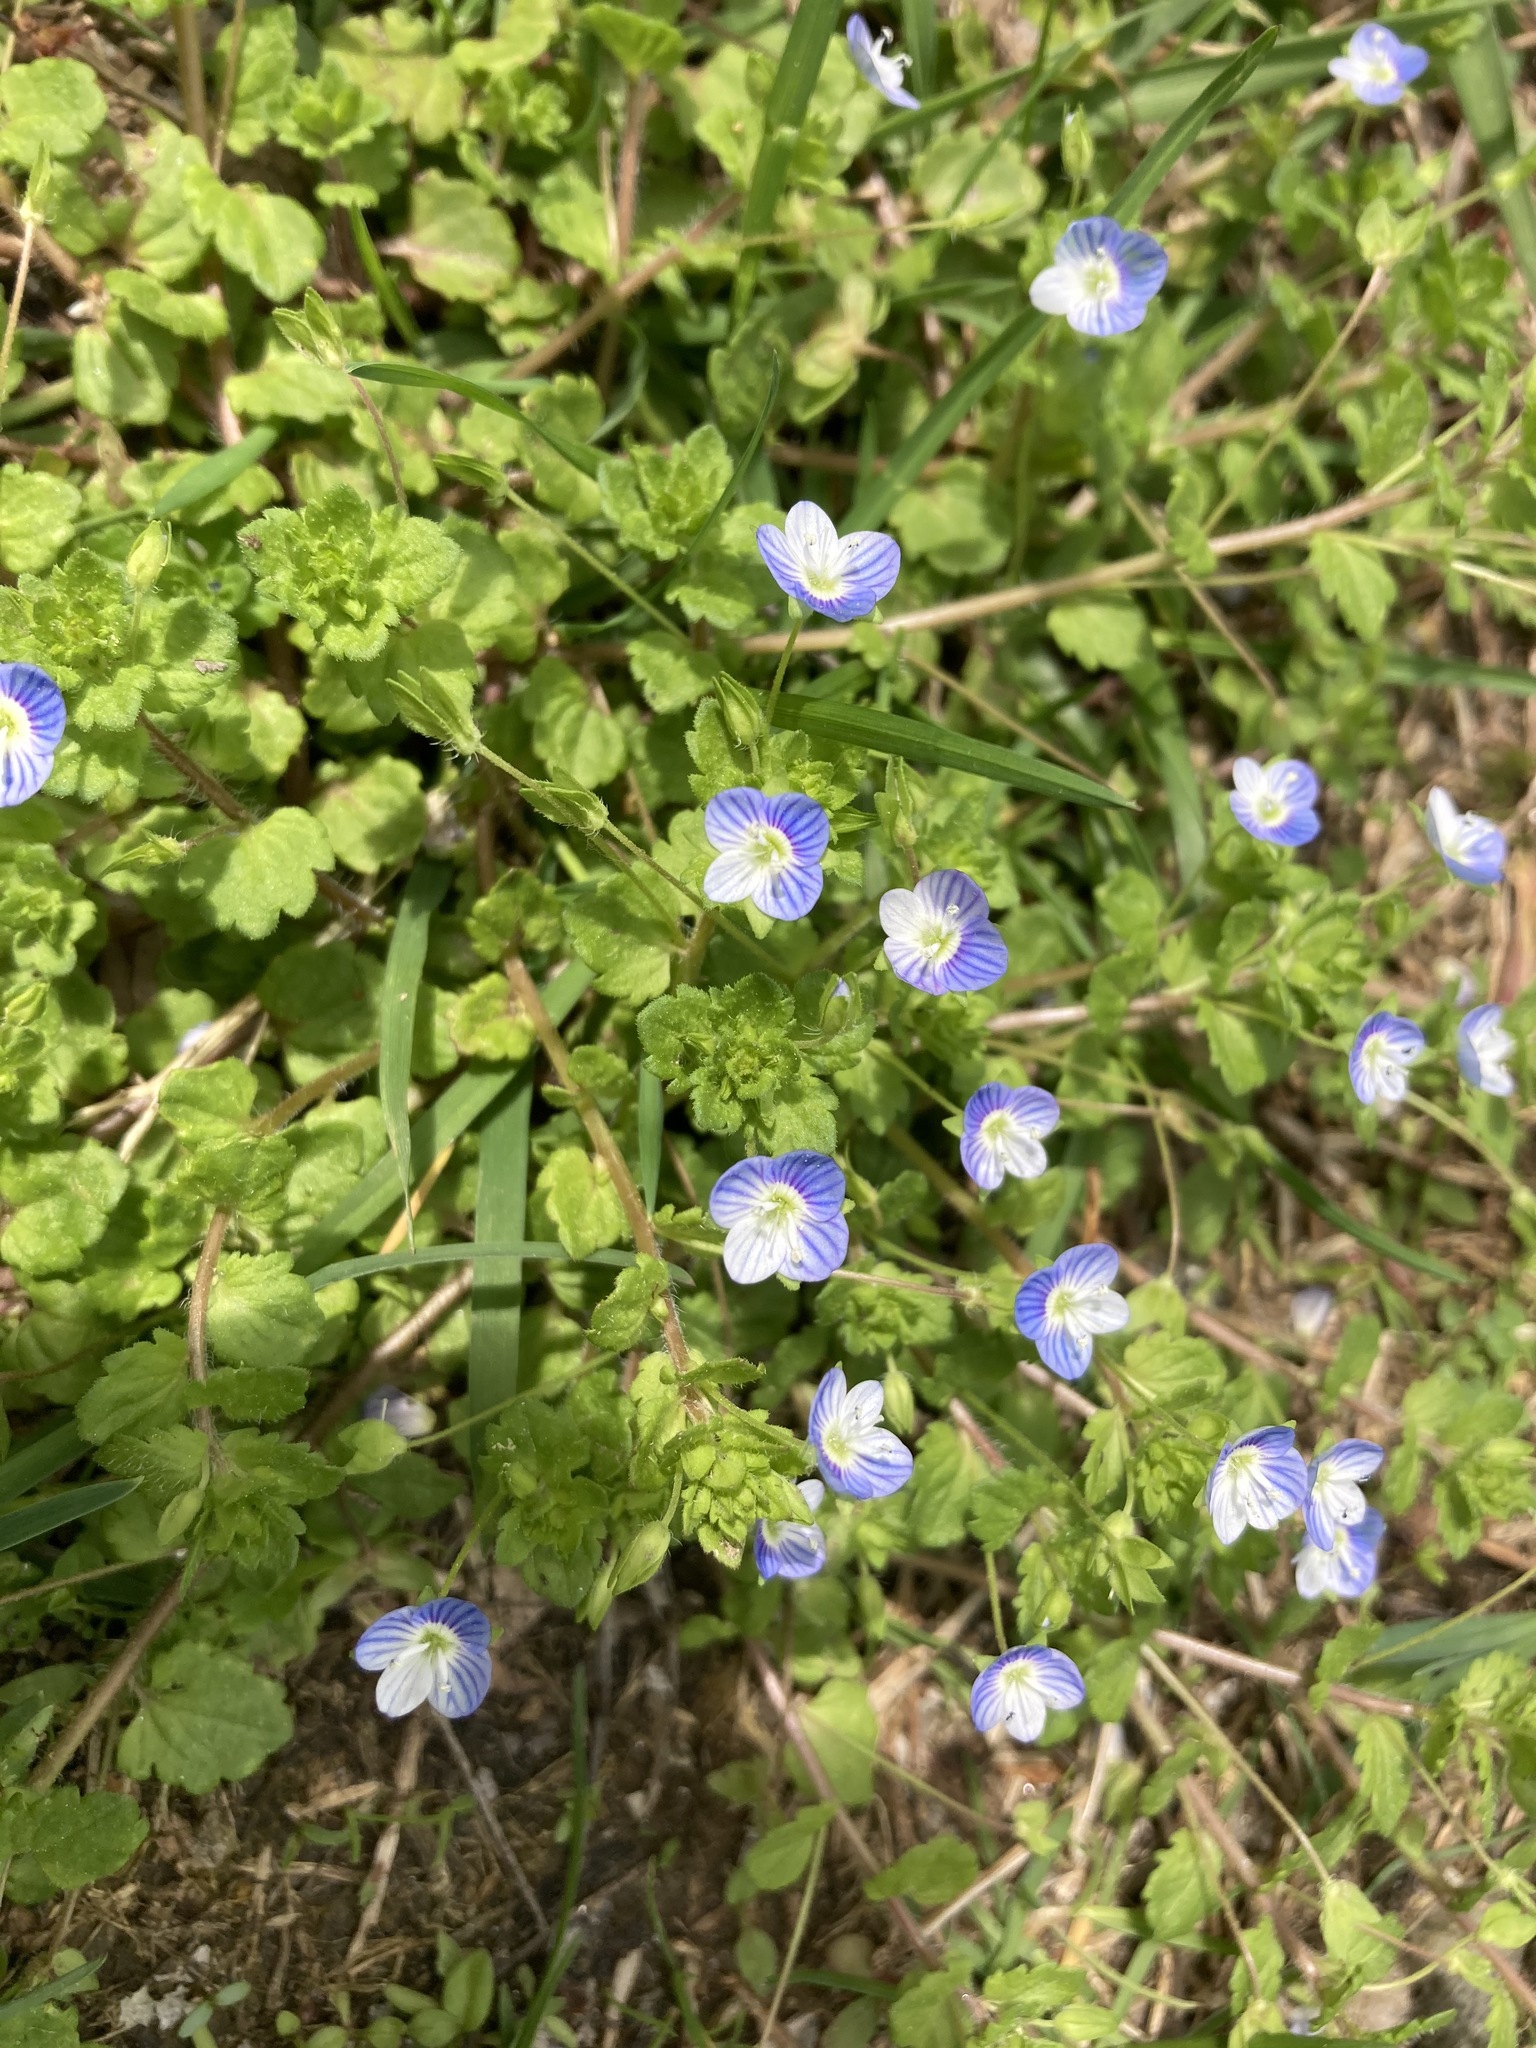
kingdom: Plantae
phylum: Tracheophyta
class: Magnoliopsida
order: Lamiales
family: Plantaginaceae
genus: Veronica
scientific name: Veronica persica
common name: Common field-speedwell
